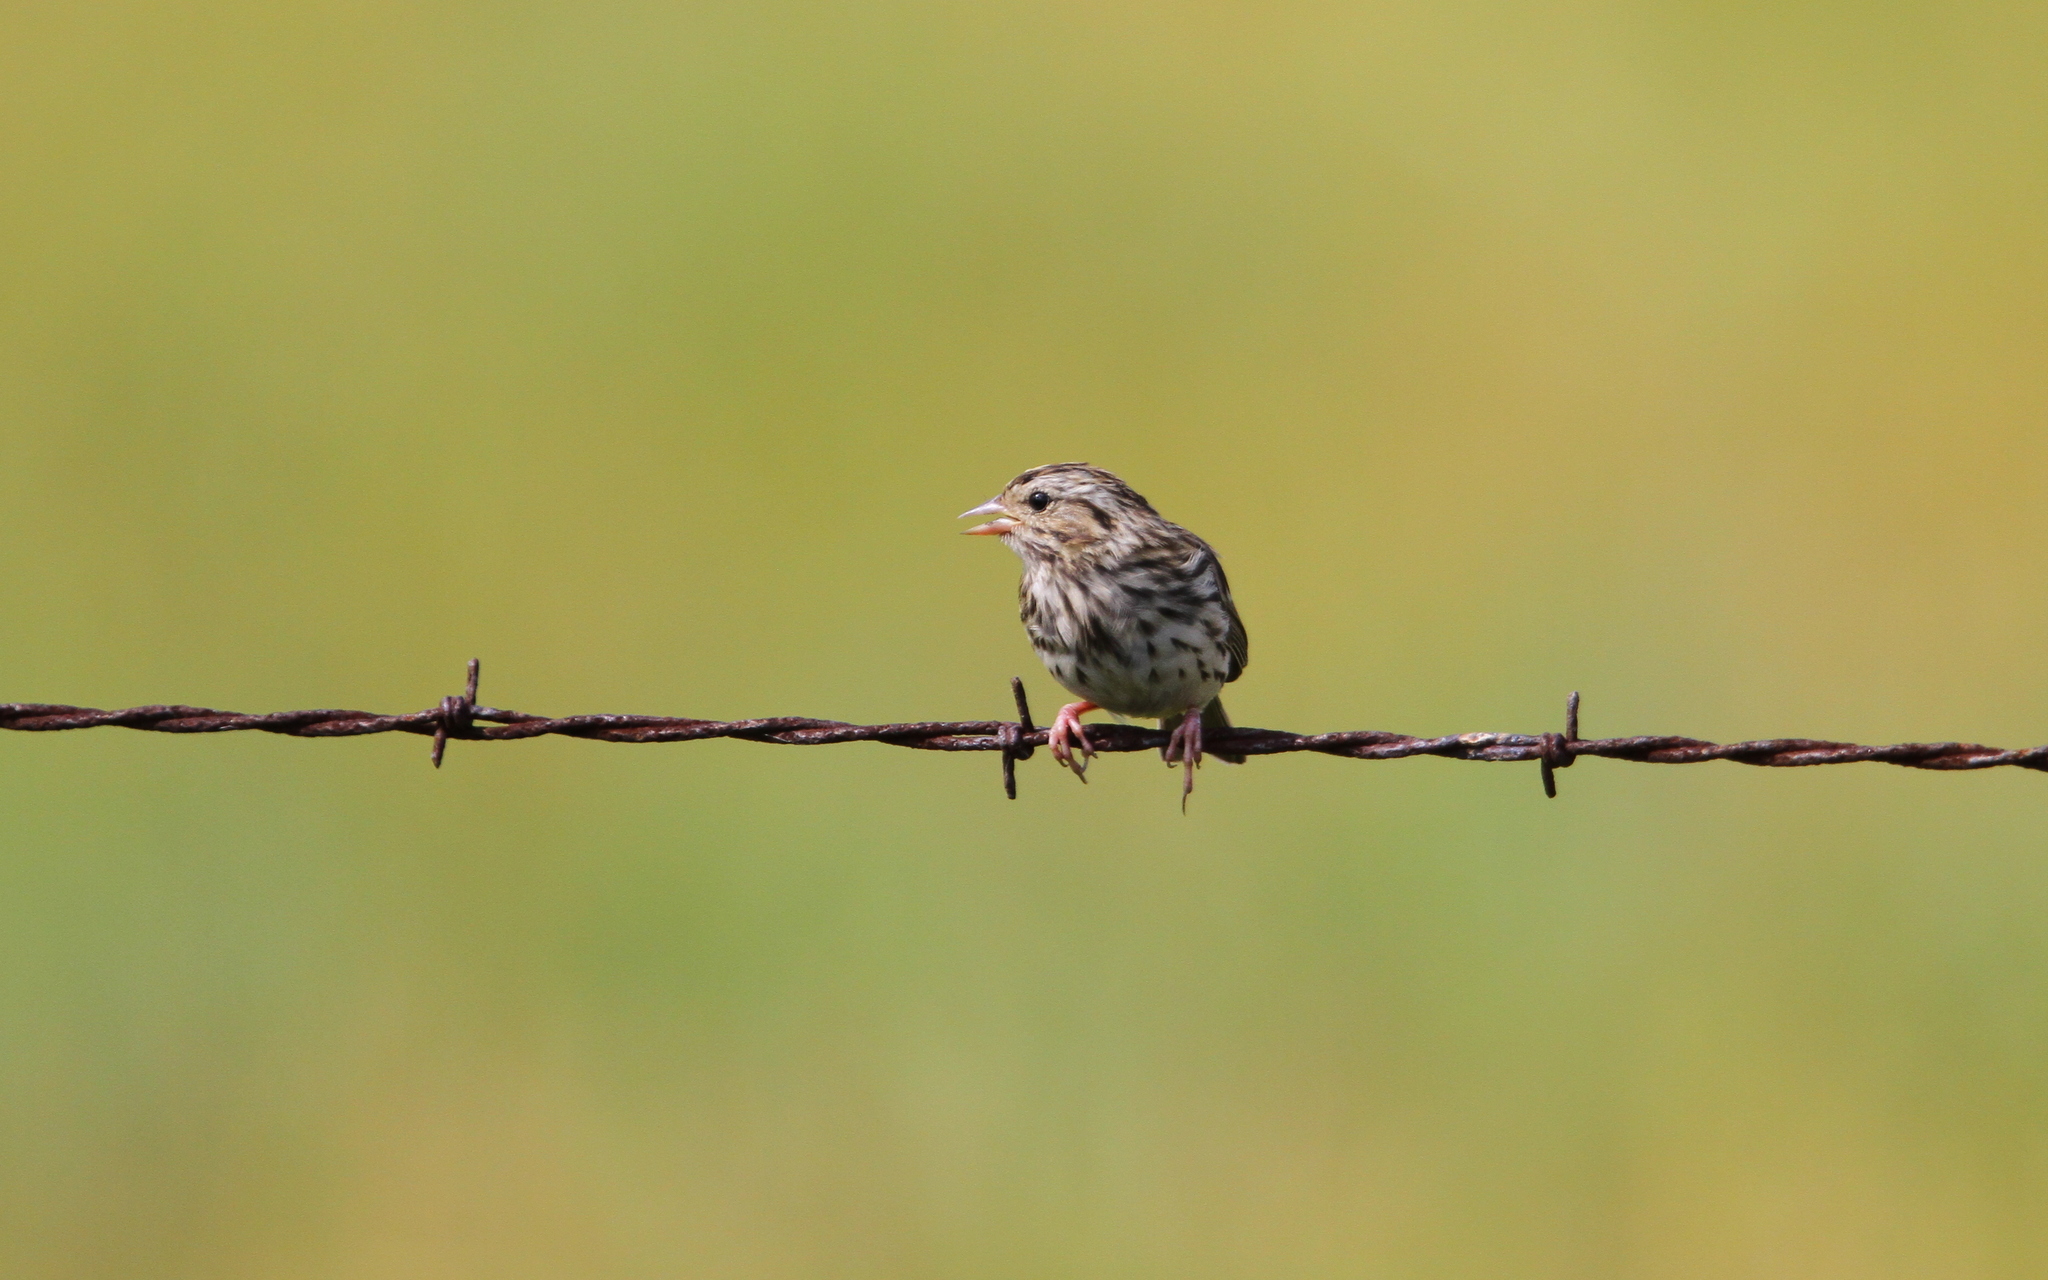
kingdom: Animalia
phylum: Chordata
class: Aves
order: Passeriformes
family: Passerellidae
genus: Passerculus
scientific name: Passerculus sandwichensis
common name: Savannah sparrow
